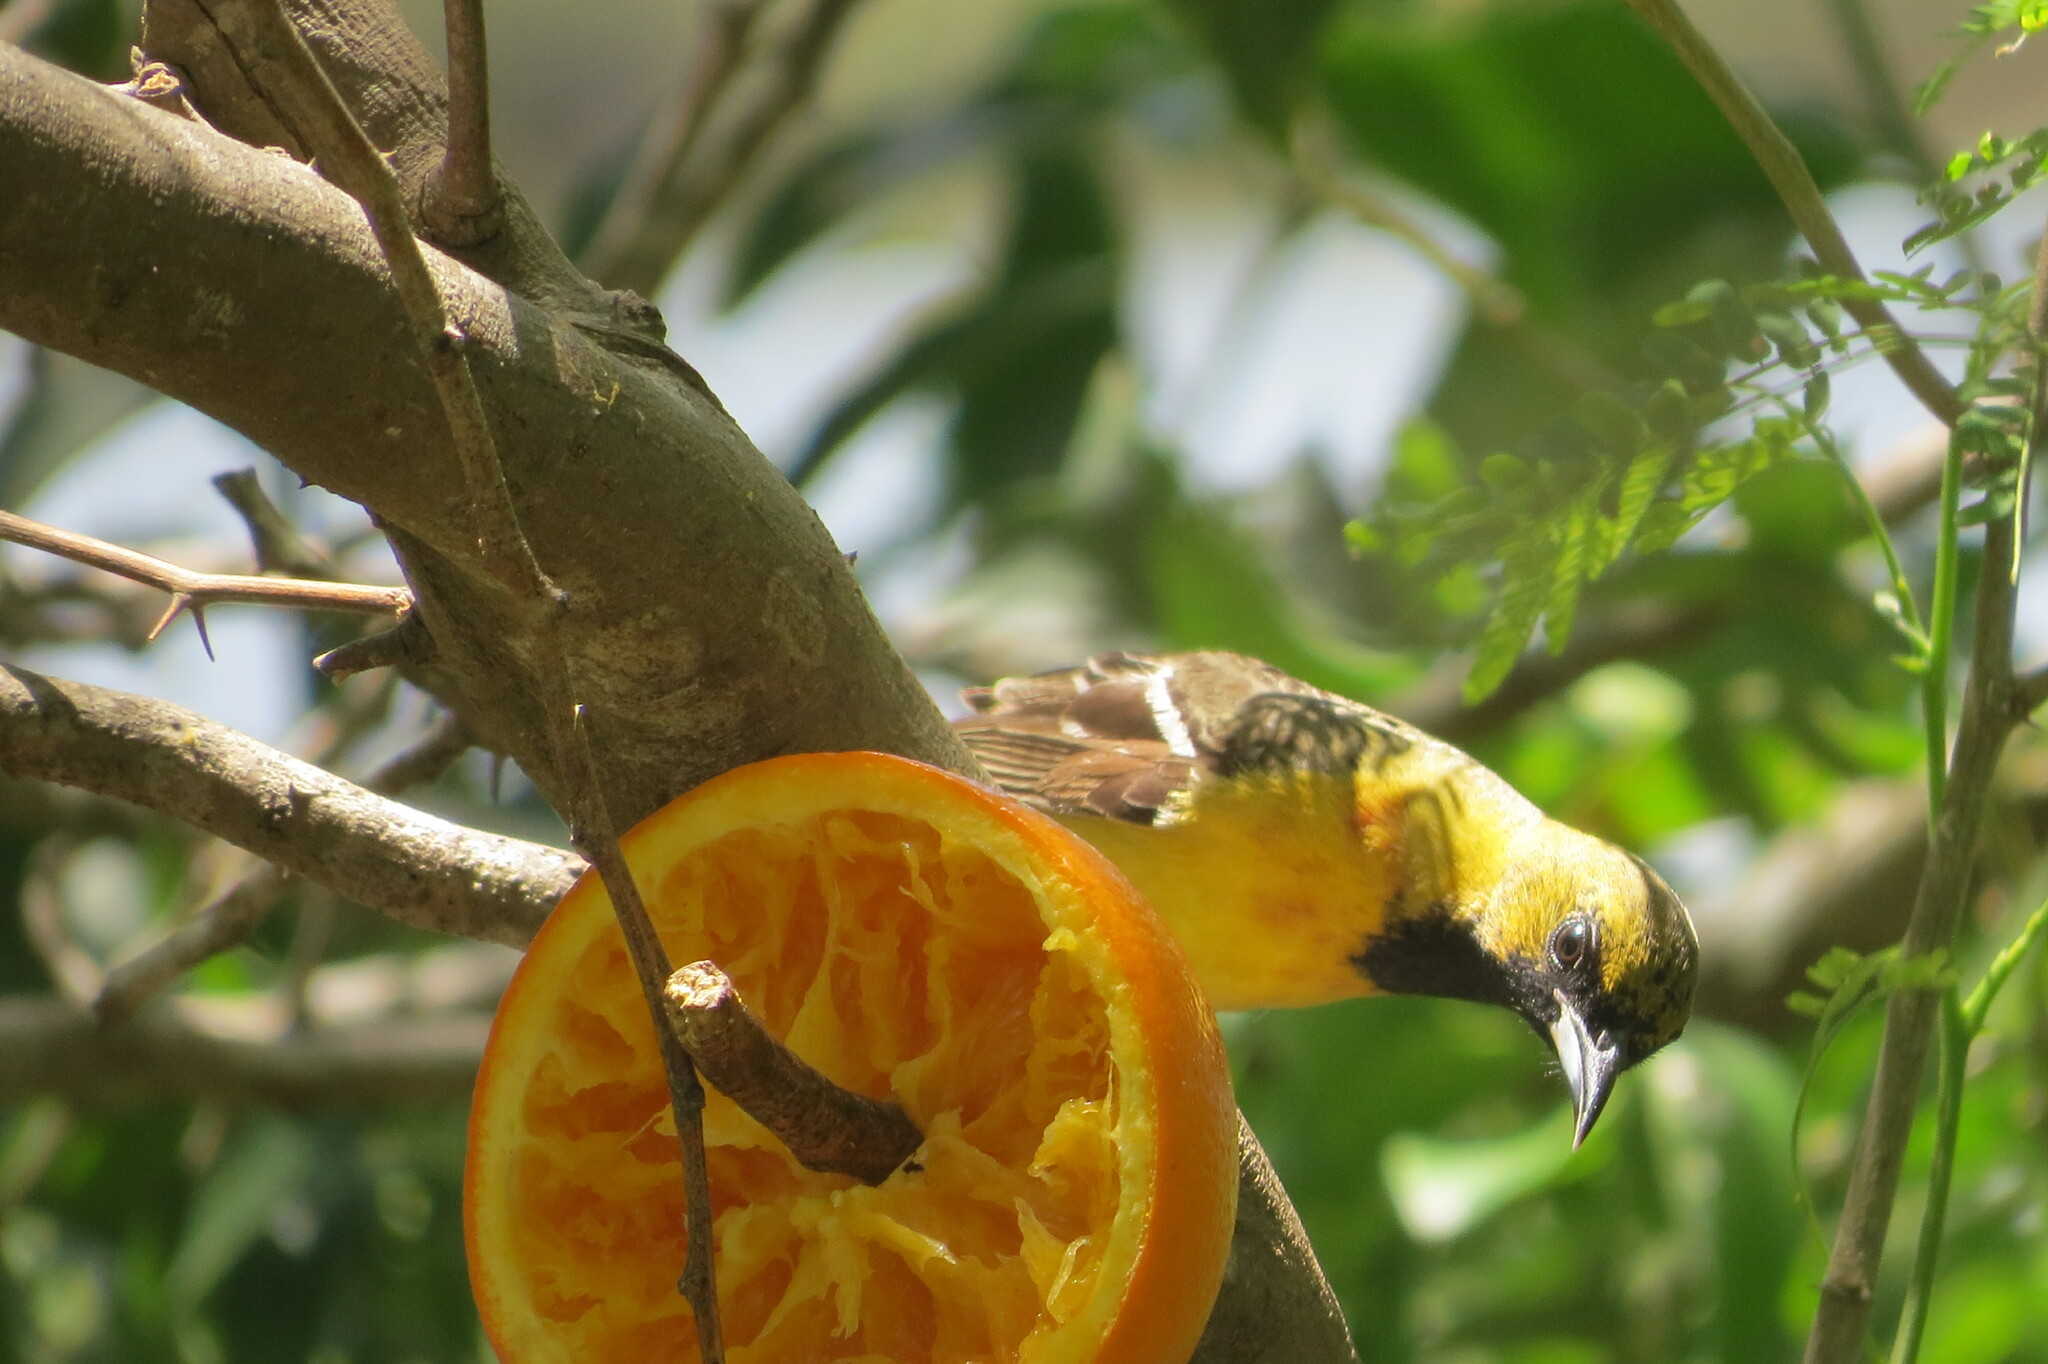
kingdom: Animalia
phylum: Chordata
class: Aves
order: Passeriformes
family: Icteridae
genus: Icterus
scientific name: Icterus cucullatus
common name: Hooded oriole
